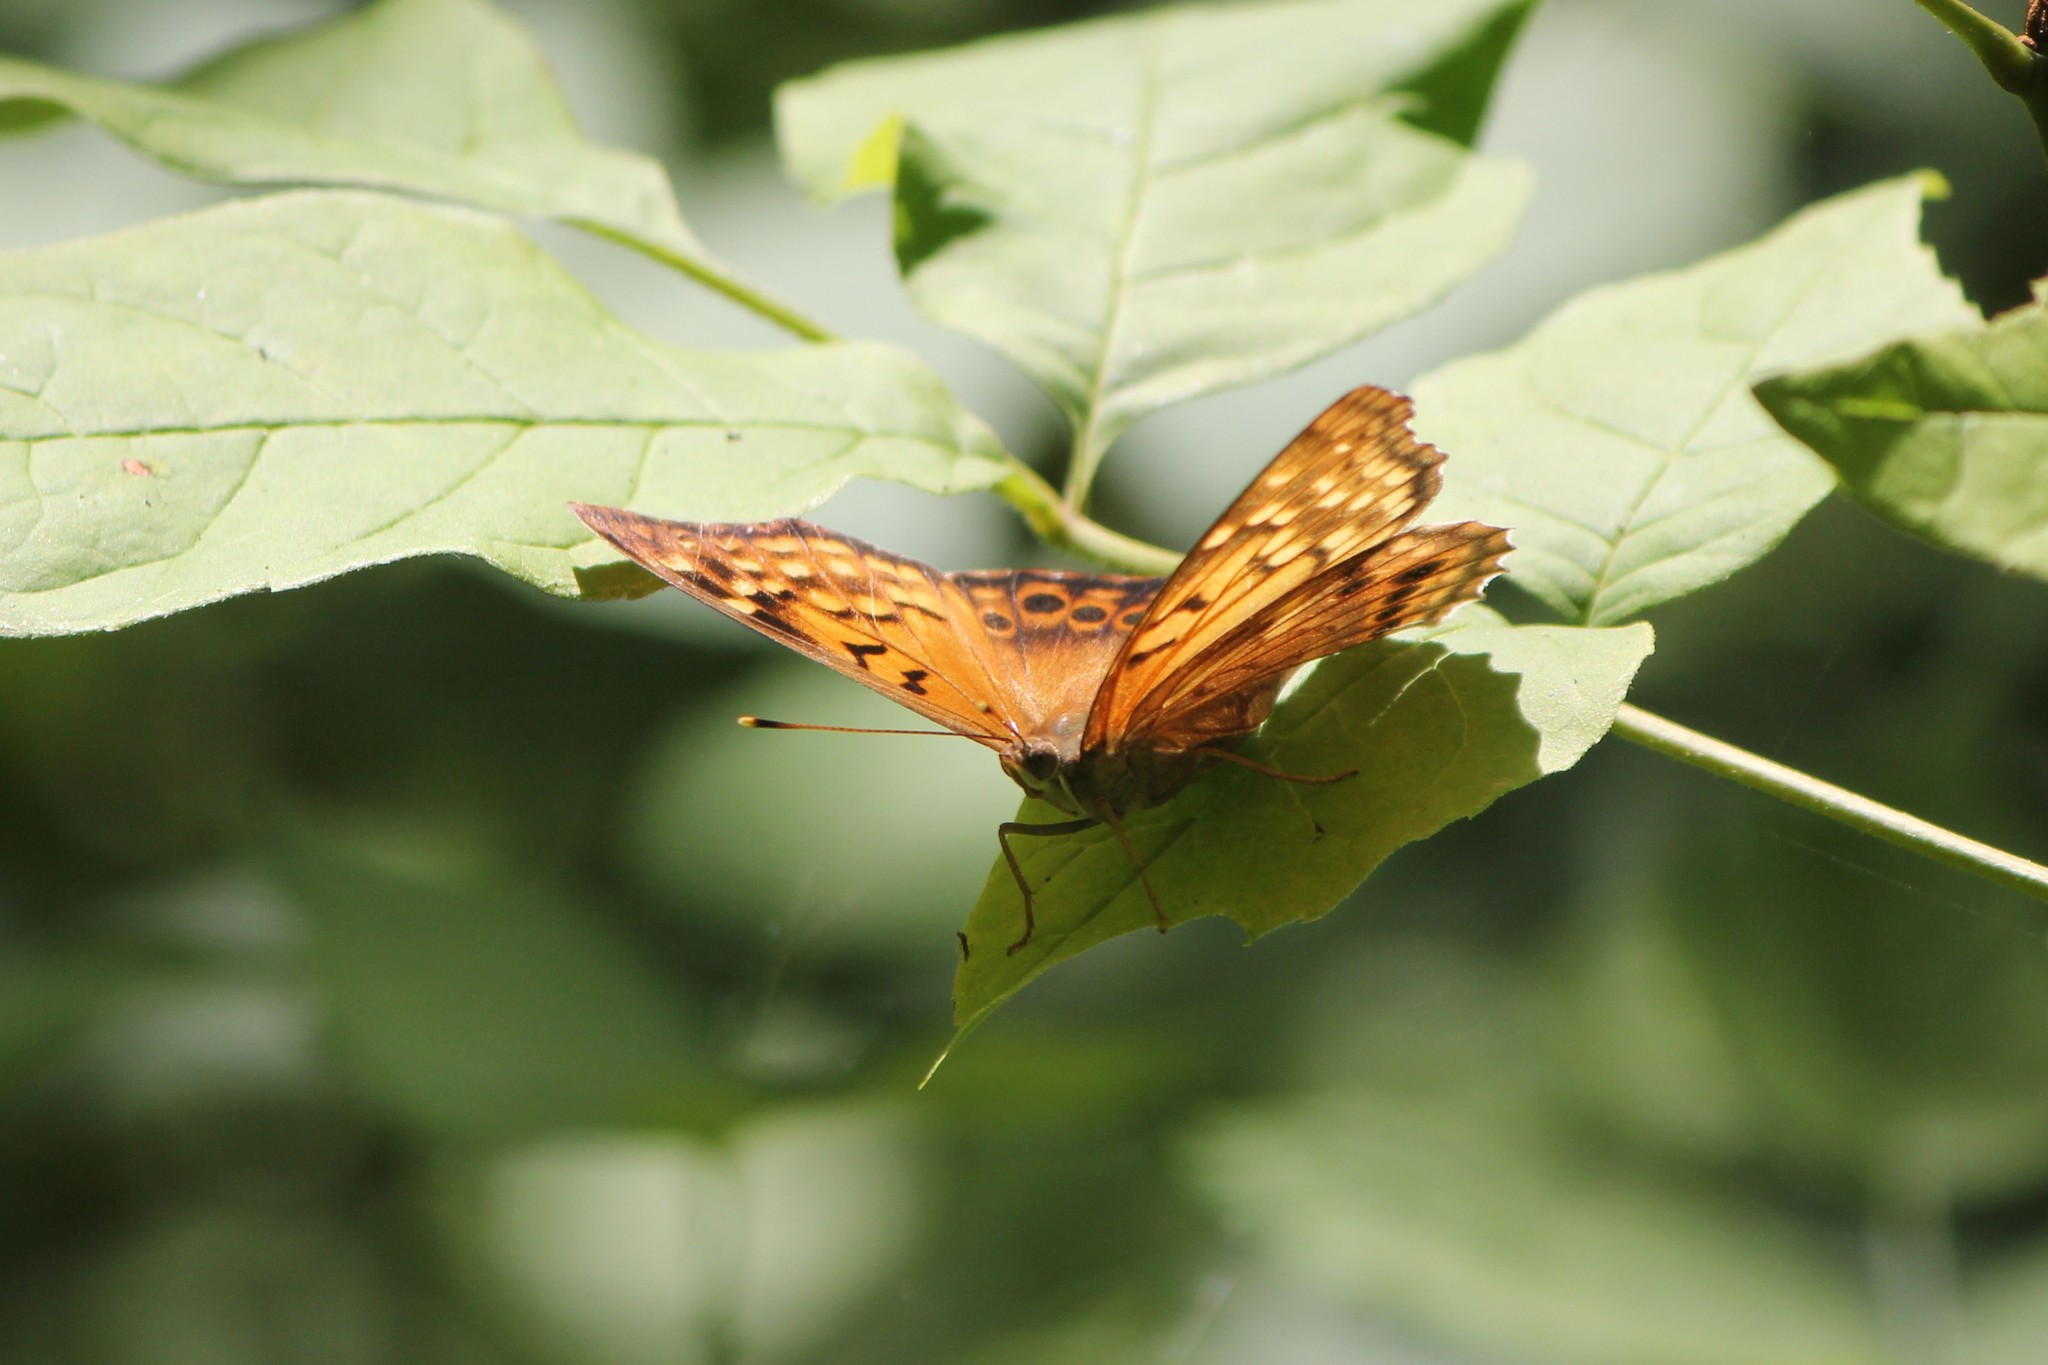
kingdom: Animalia
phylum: Arthropoda
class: Insecta
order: Lepidoptera
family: Nymphalidae
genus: Asterocampa
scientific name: Asterocampa clyton
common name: Tawny emperor
